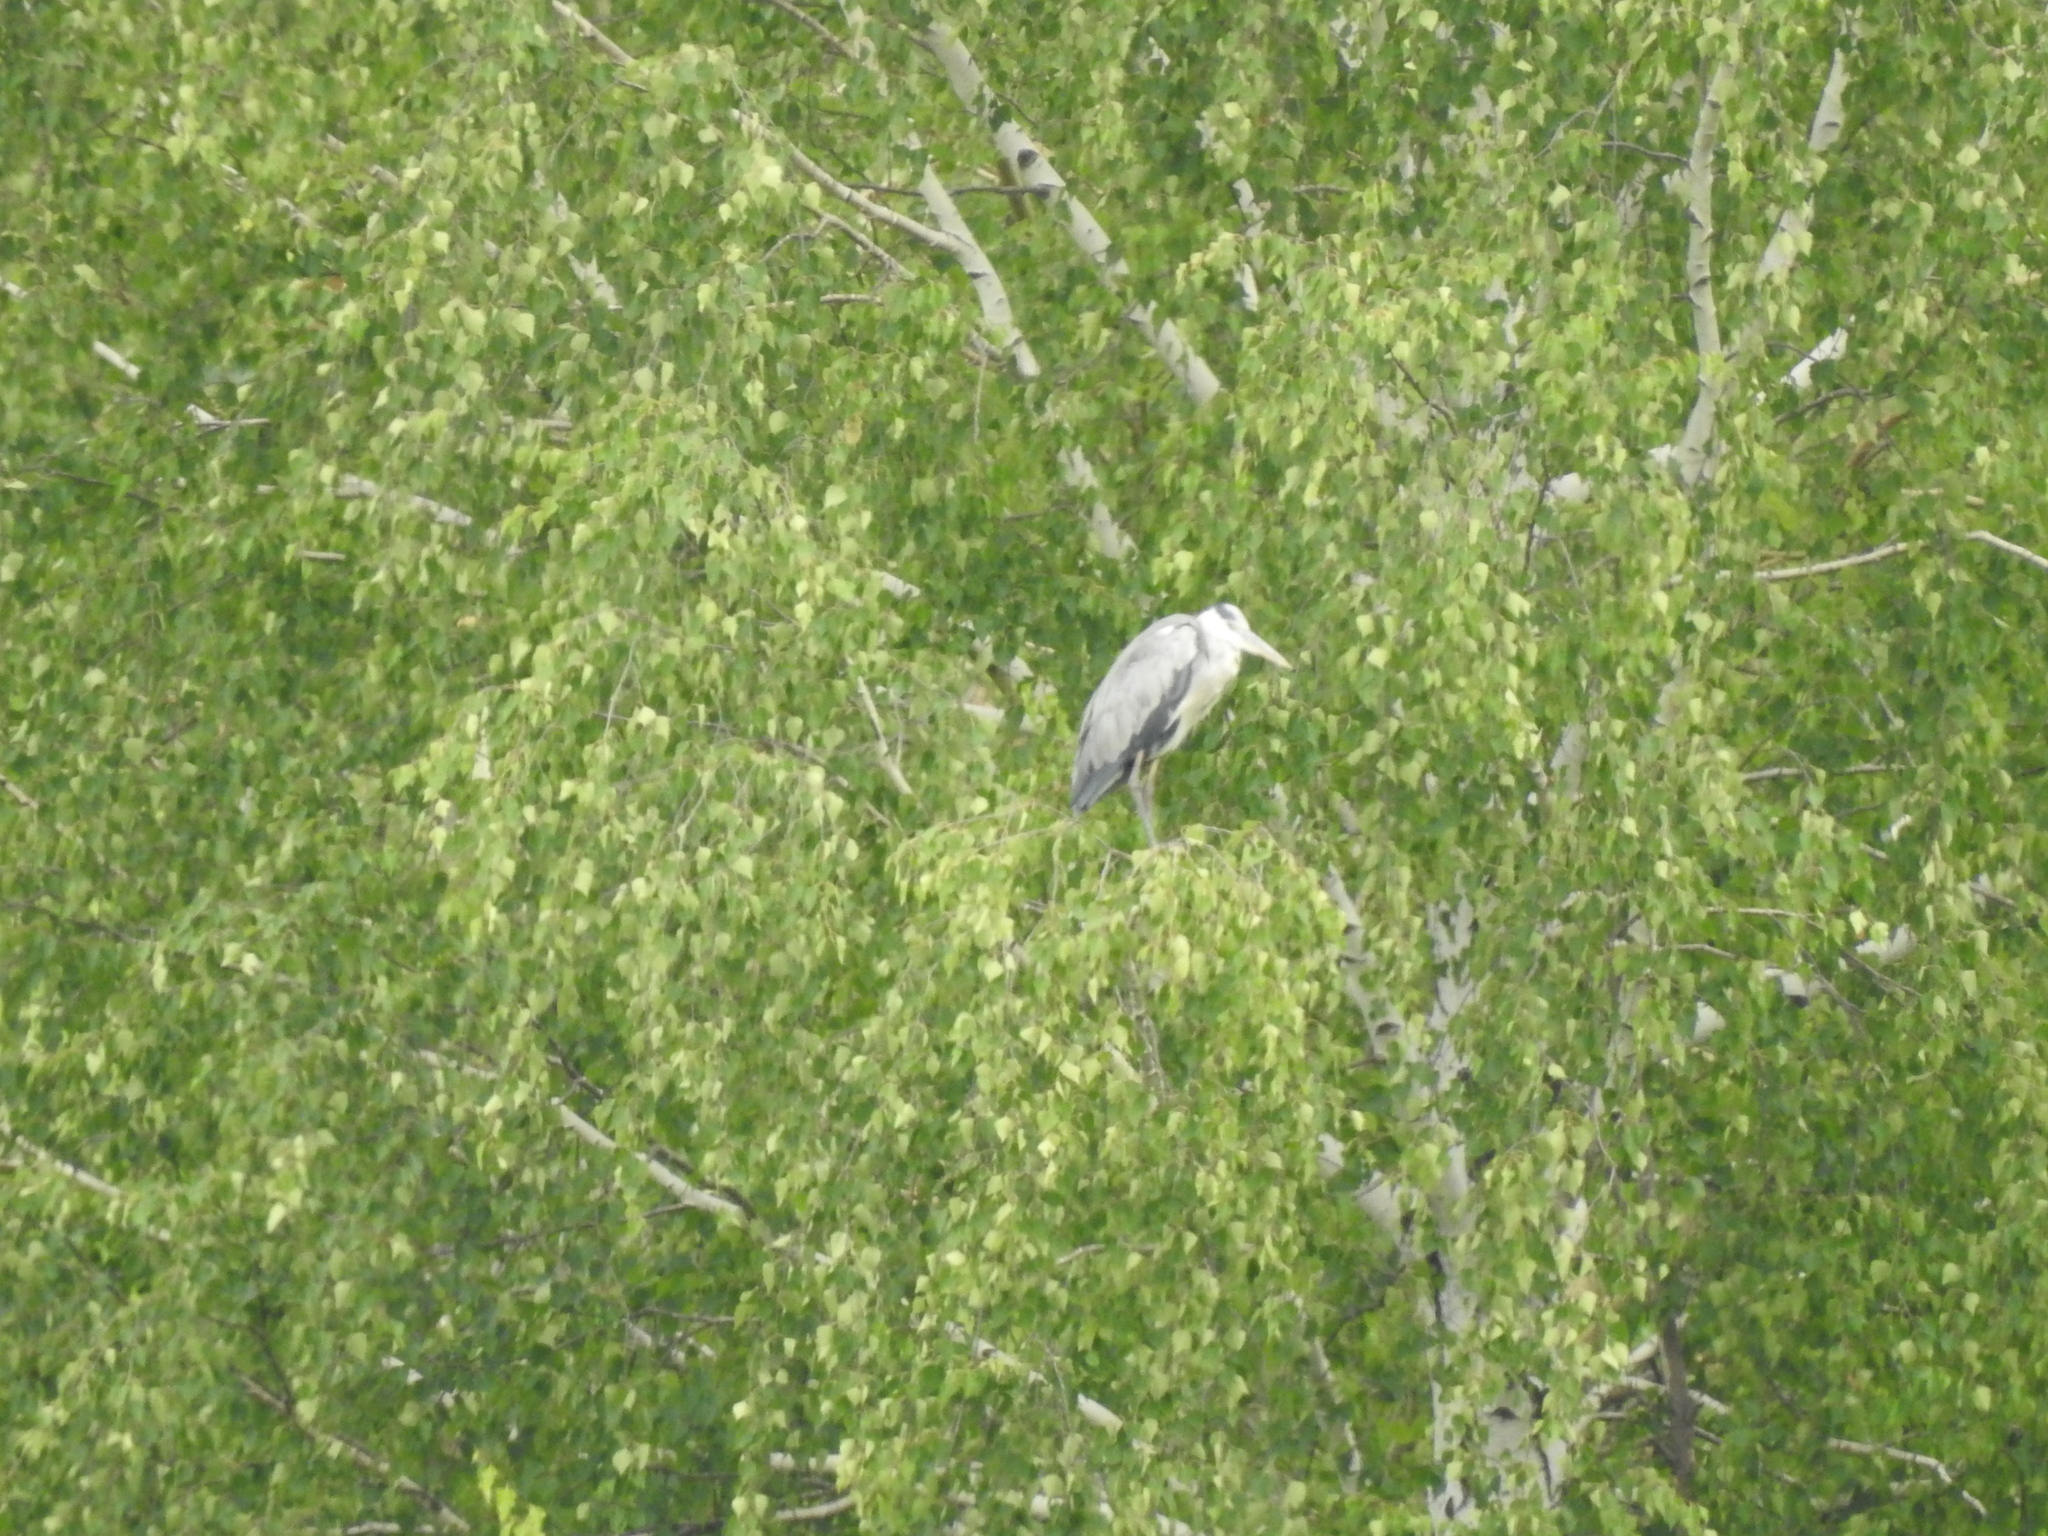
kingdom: Animalia
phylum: Chordata
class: Aves
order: Pelecaniformes
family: Ardeidae
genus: Ardea
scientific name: Ardea cinerea
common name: Grey heron
